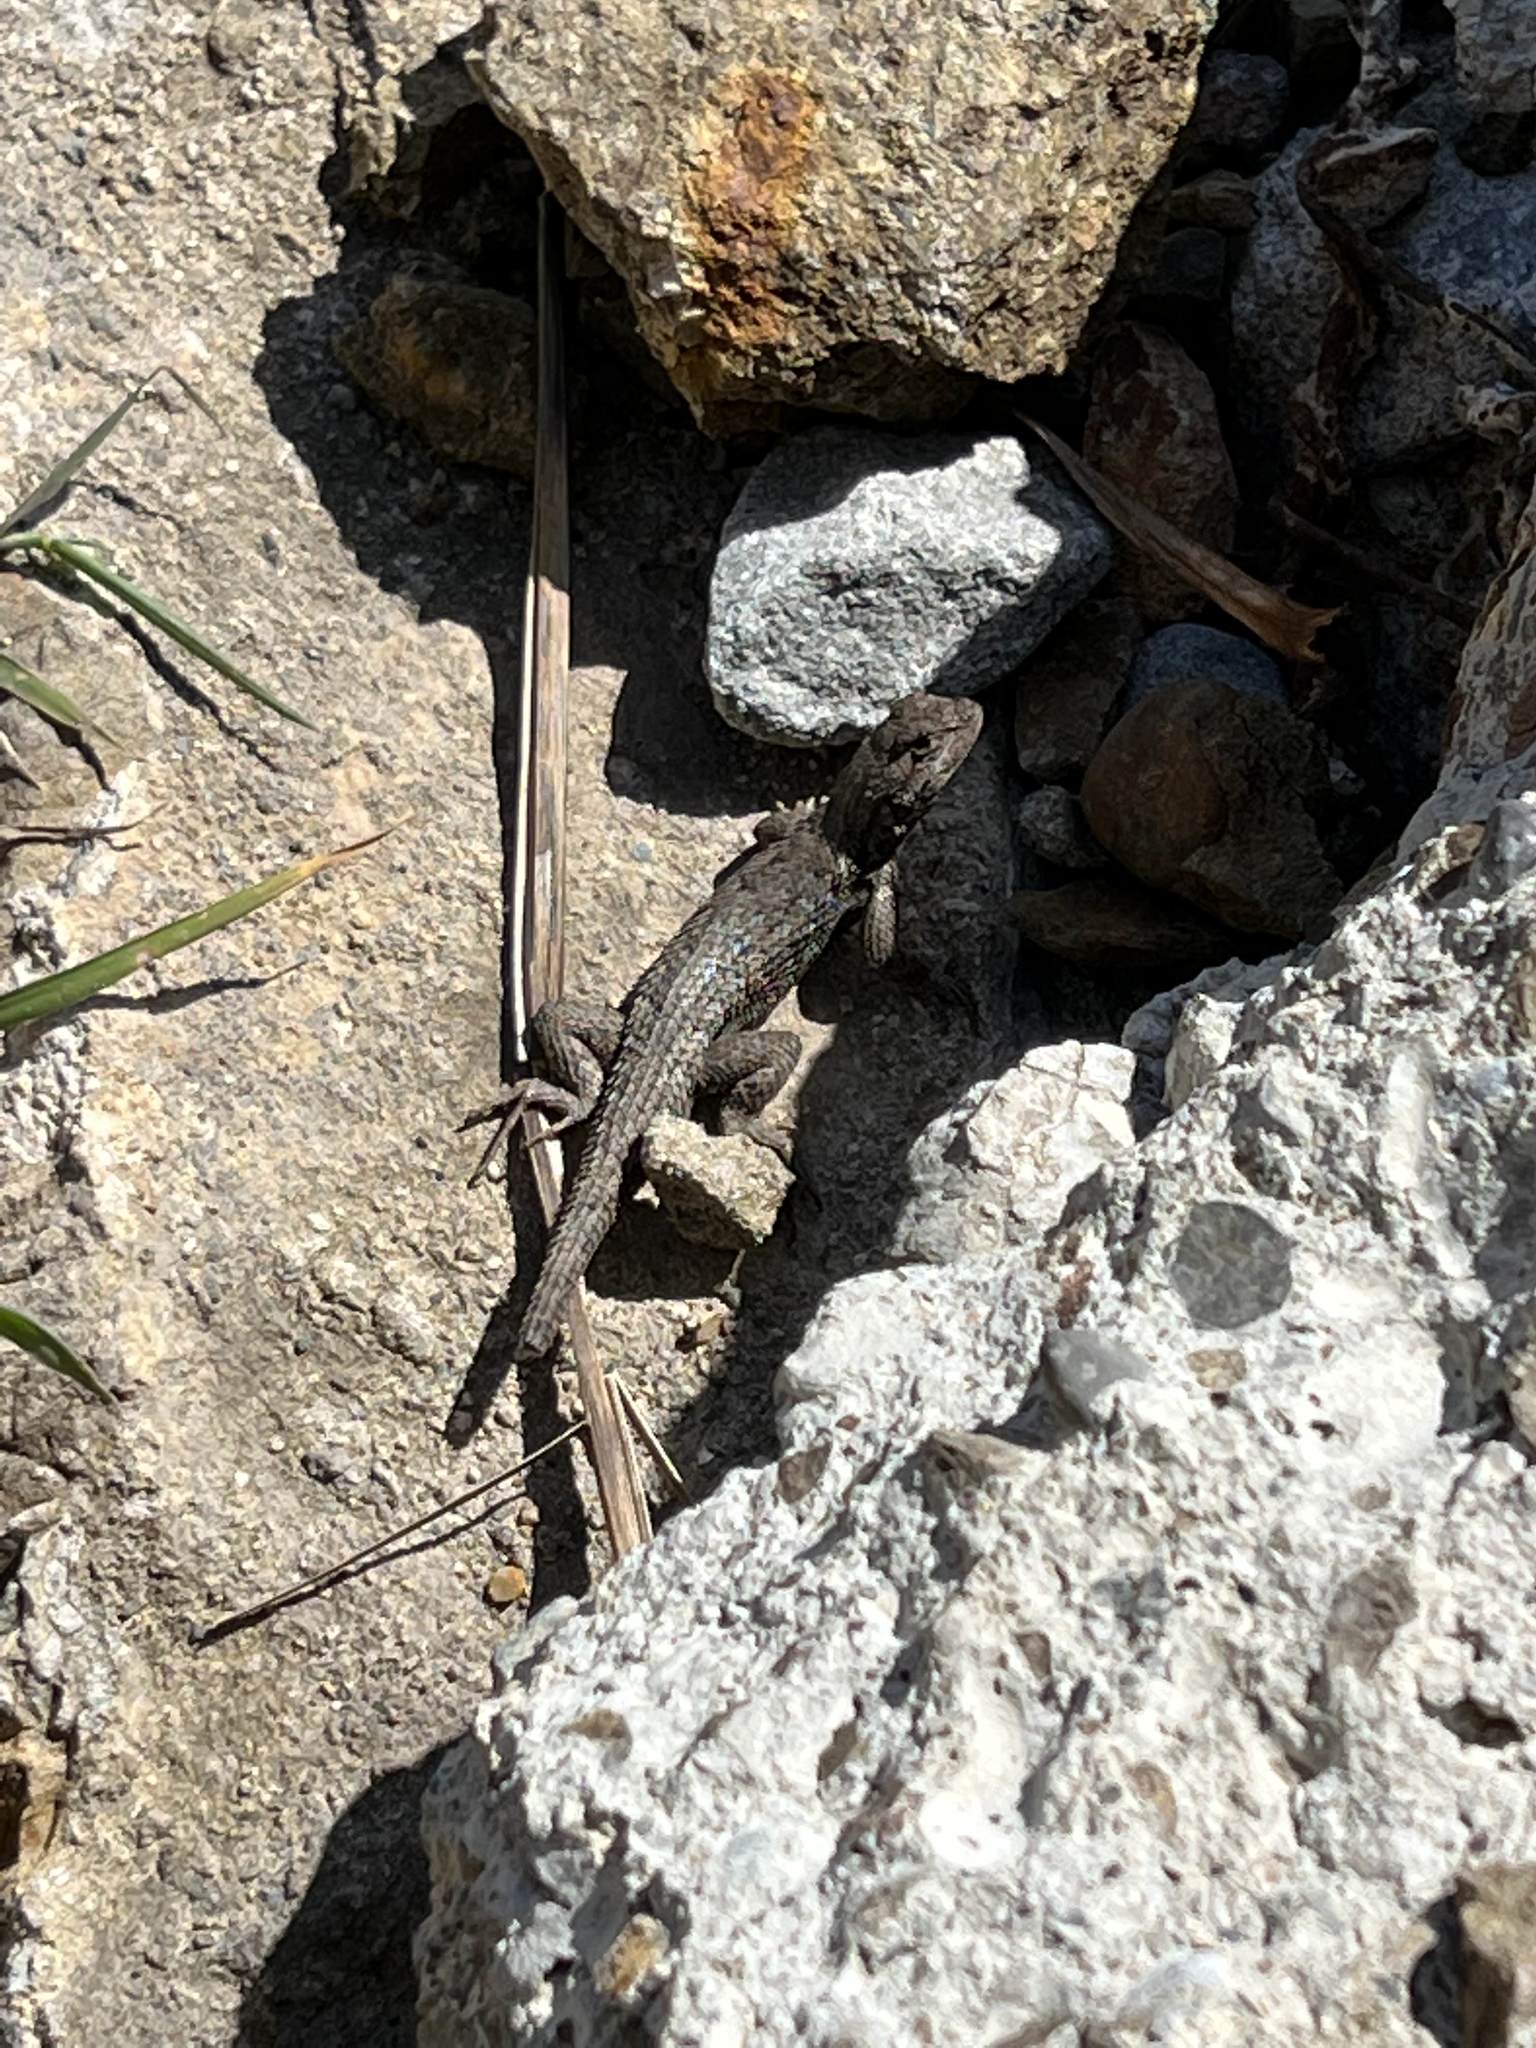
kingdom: Animalia
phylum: Chordata
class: Squamata
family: Phrynosomatidae
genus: Sceloporus
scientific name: Sceloporus occidentalis
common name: Western fence lizard
